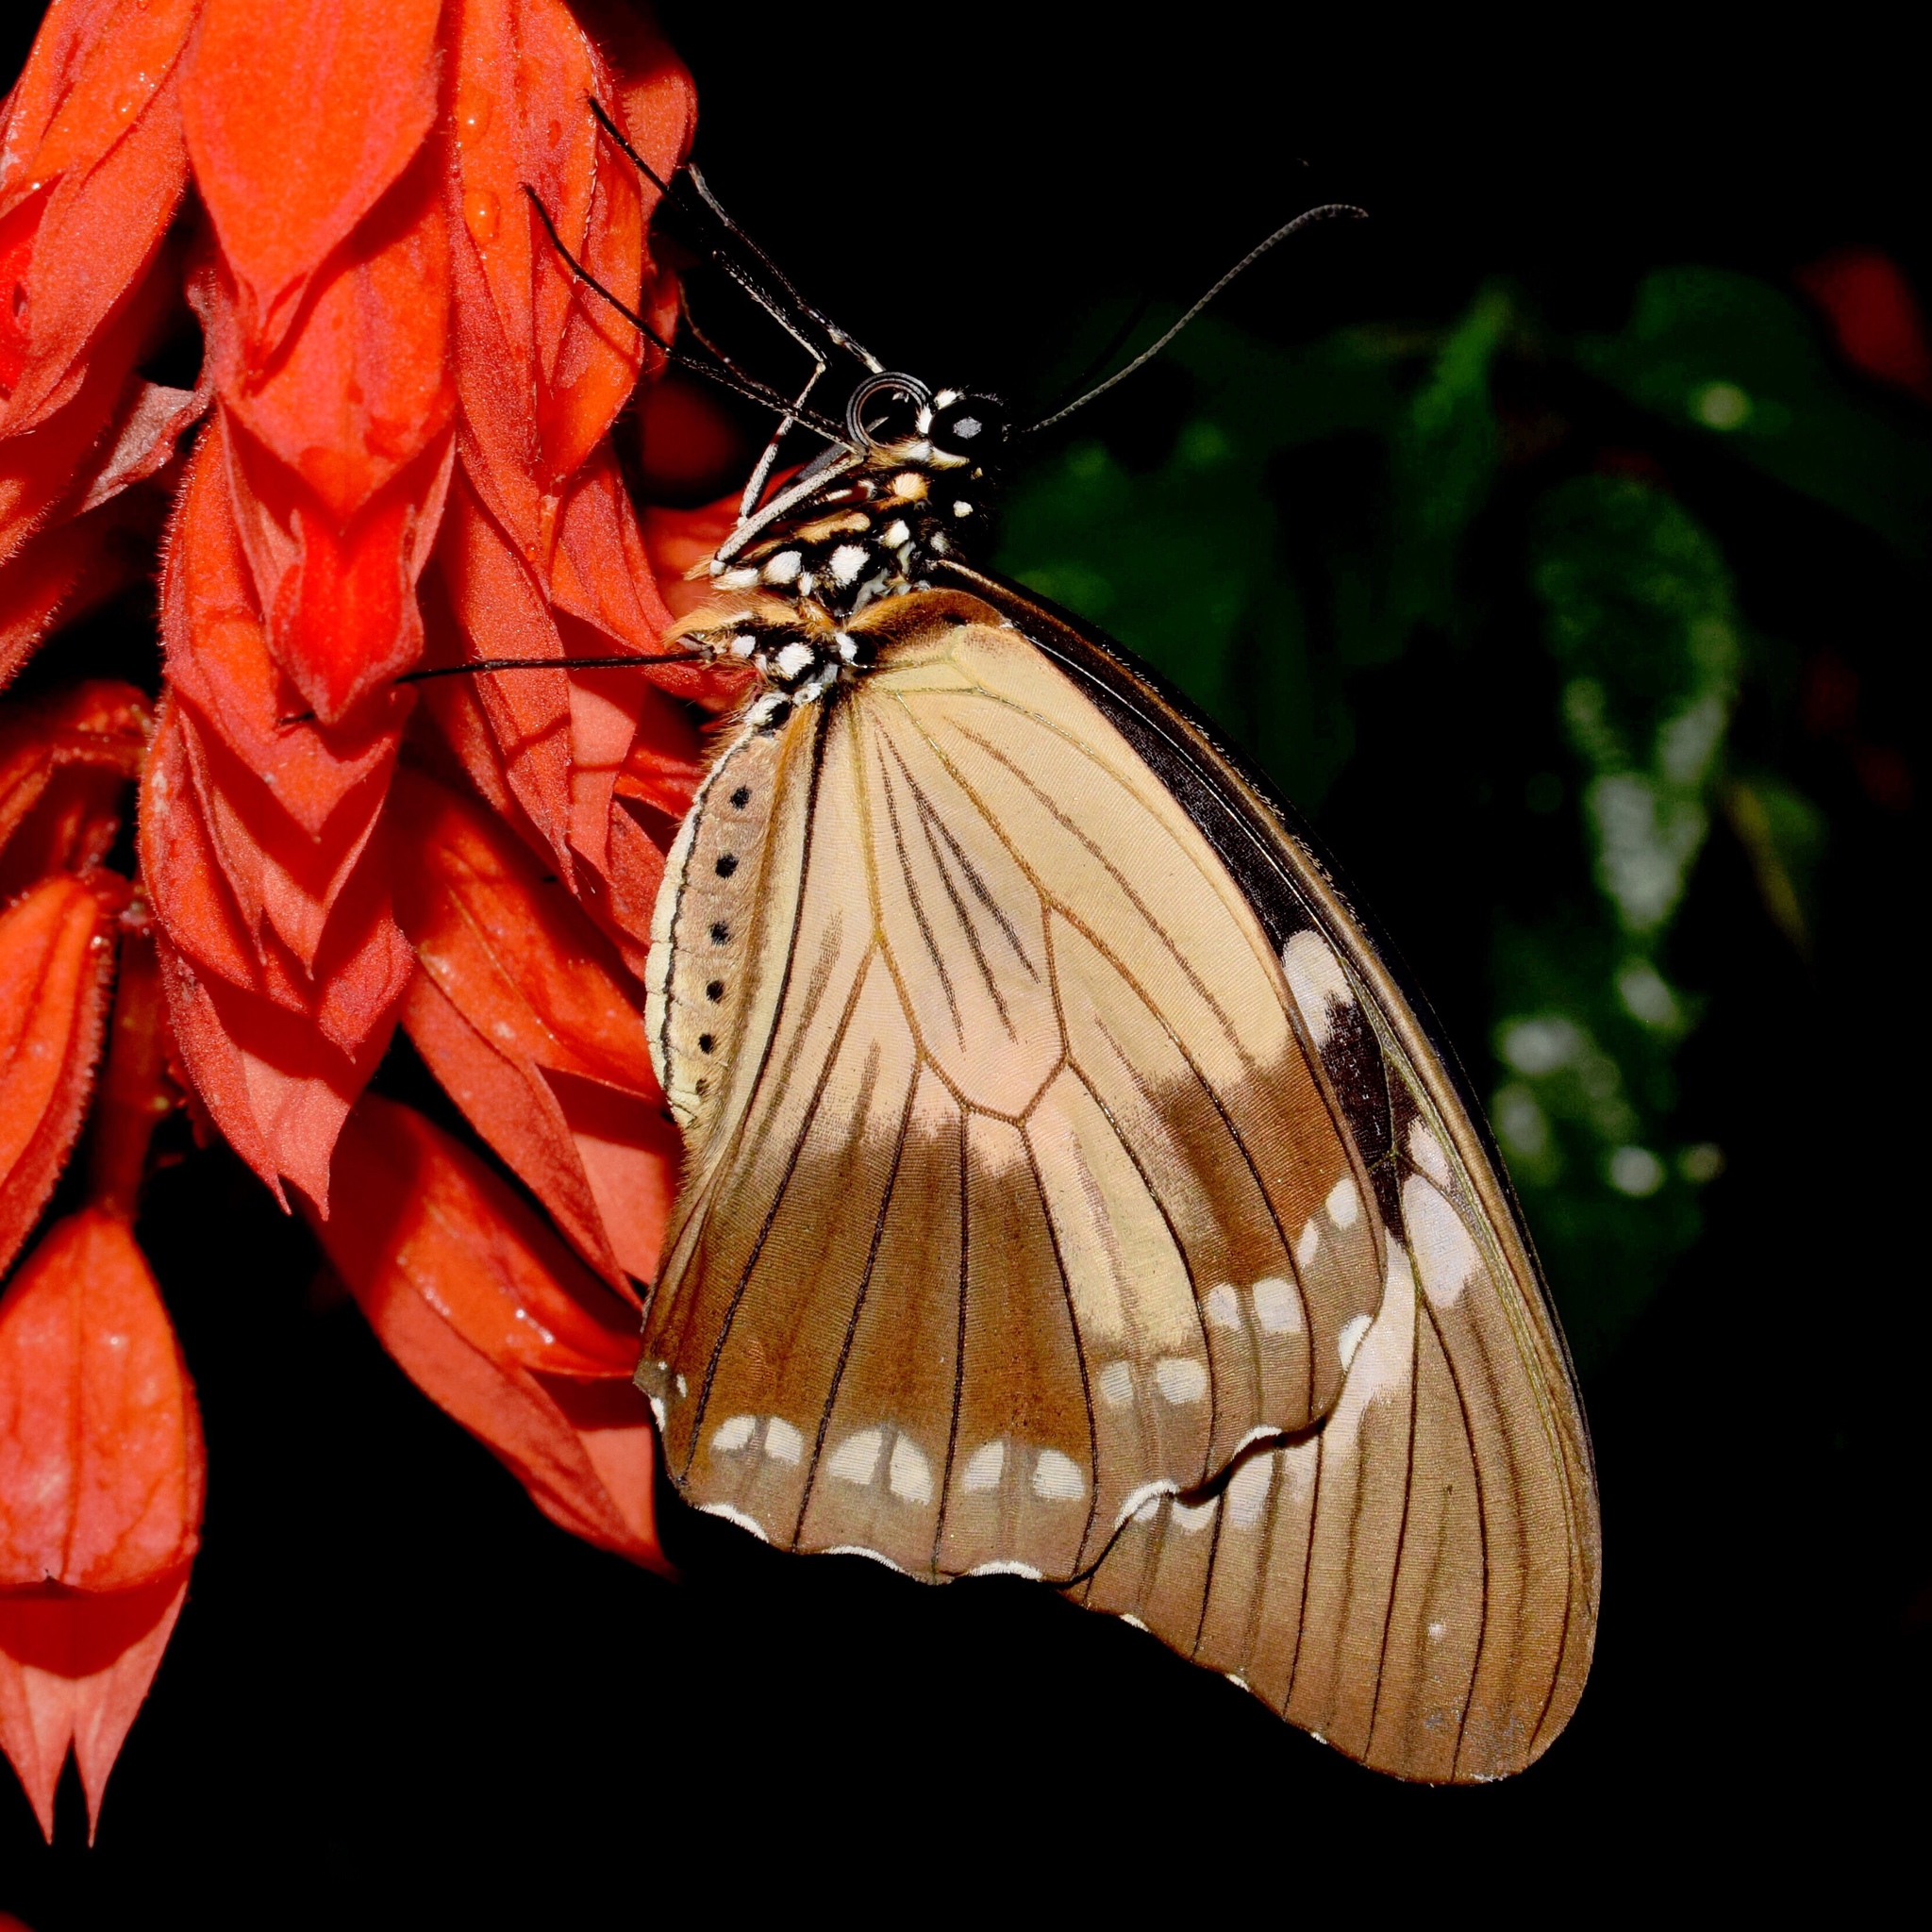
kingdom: Animalia
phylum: Arthropoda
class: Insecta
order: Lepidoptera
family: Papilionidae
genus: Papilio
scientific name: Papilio dardanus
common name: Flying handkerchief
